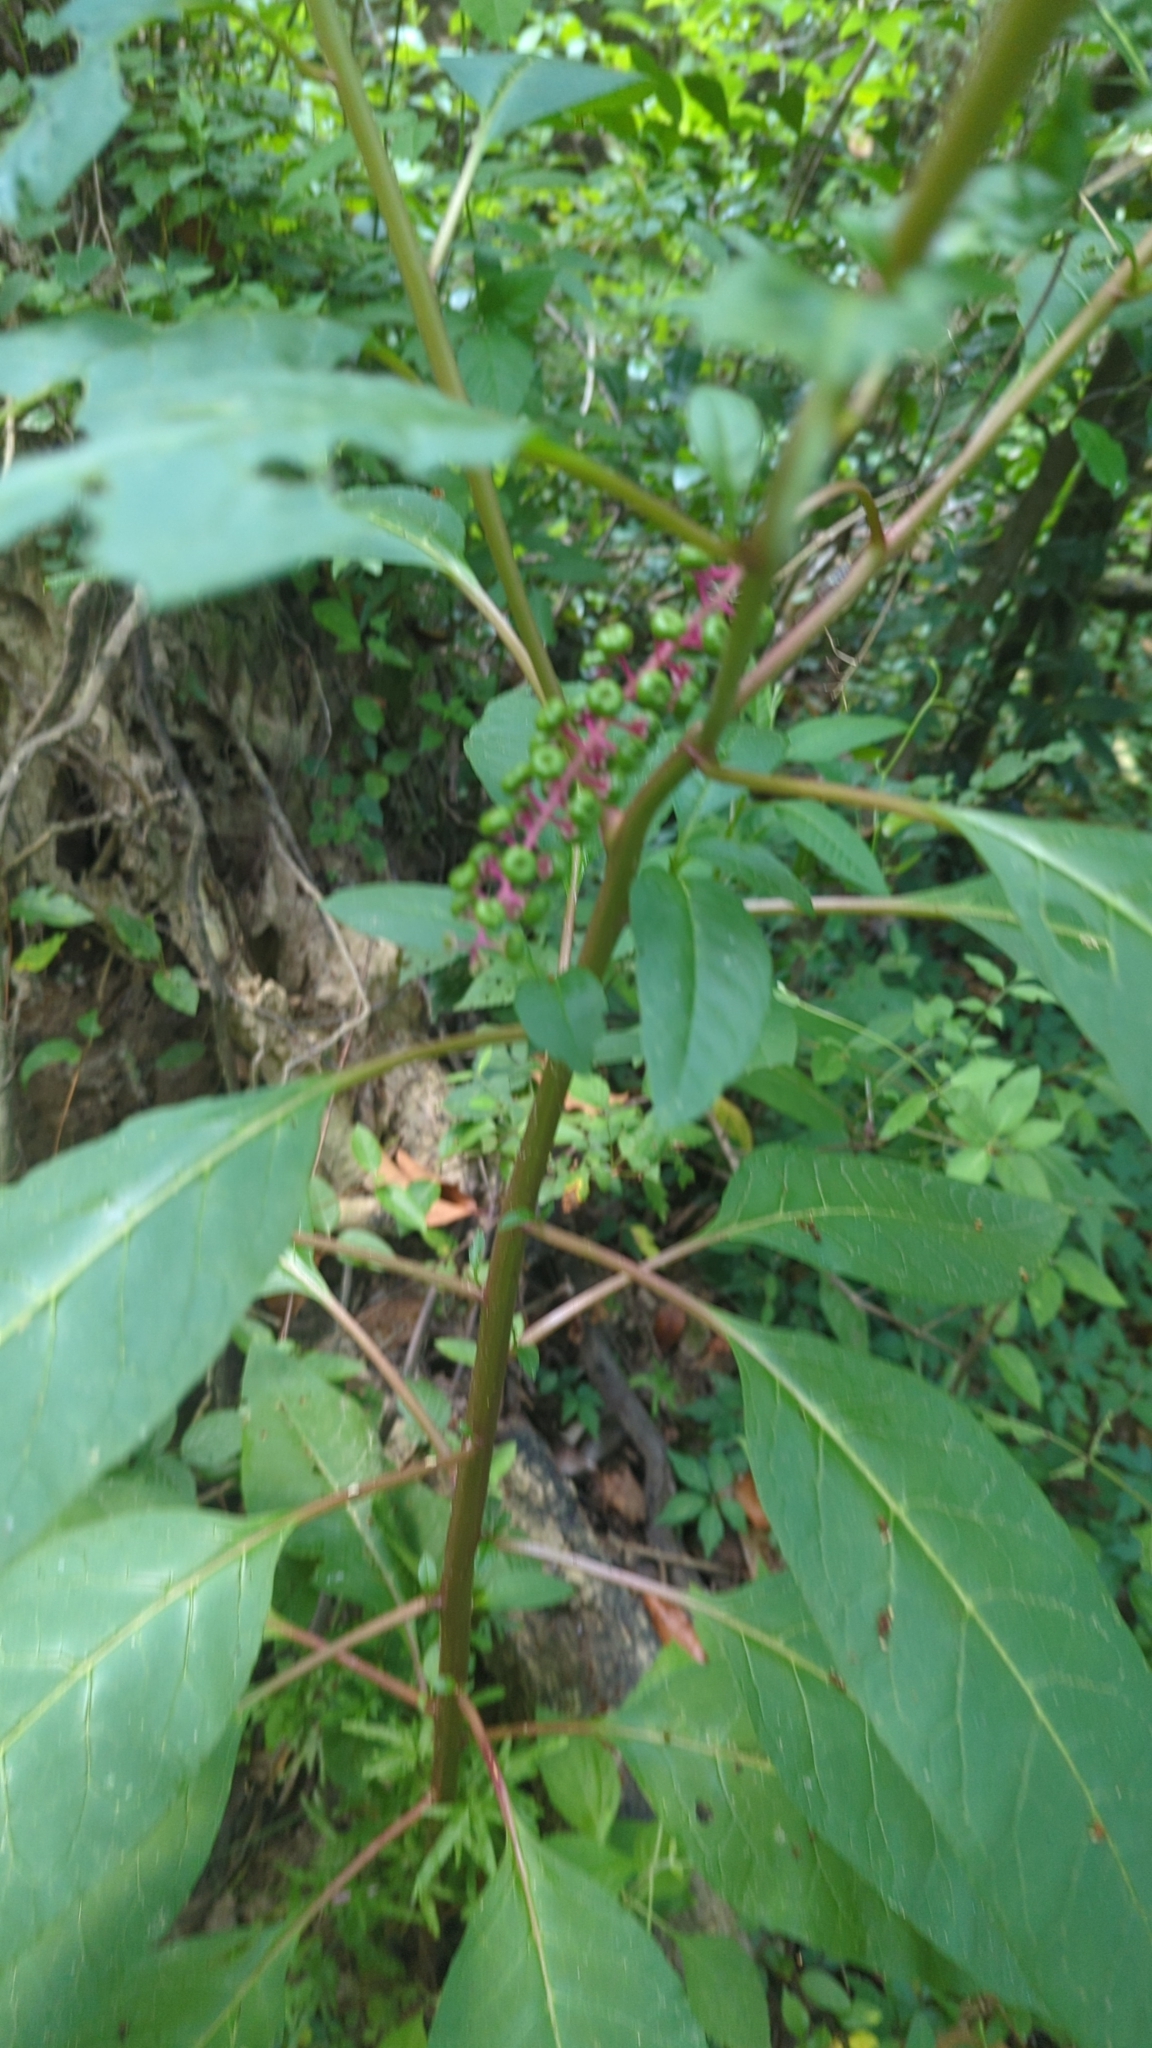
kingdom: Plantae
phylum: Tracheophyta
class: Magnoliopsida
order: Caryophyllales
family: Phytolaccaceae
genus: Phytolacca
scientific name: Phytolacca americana
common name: American pokeweed
